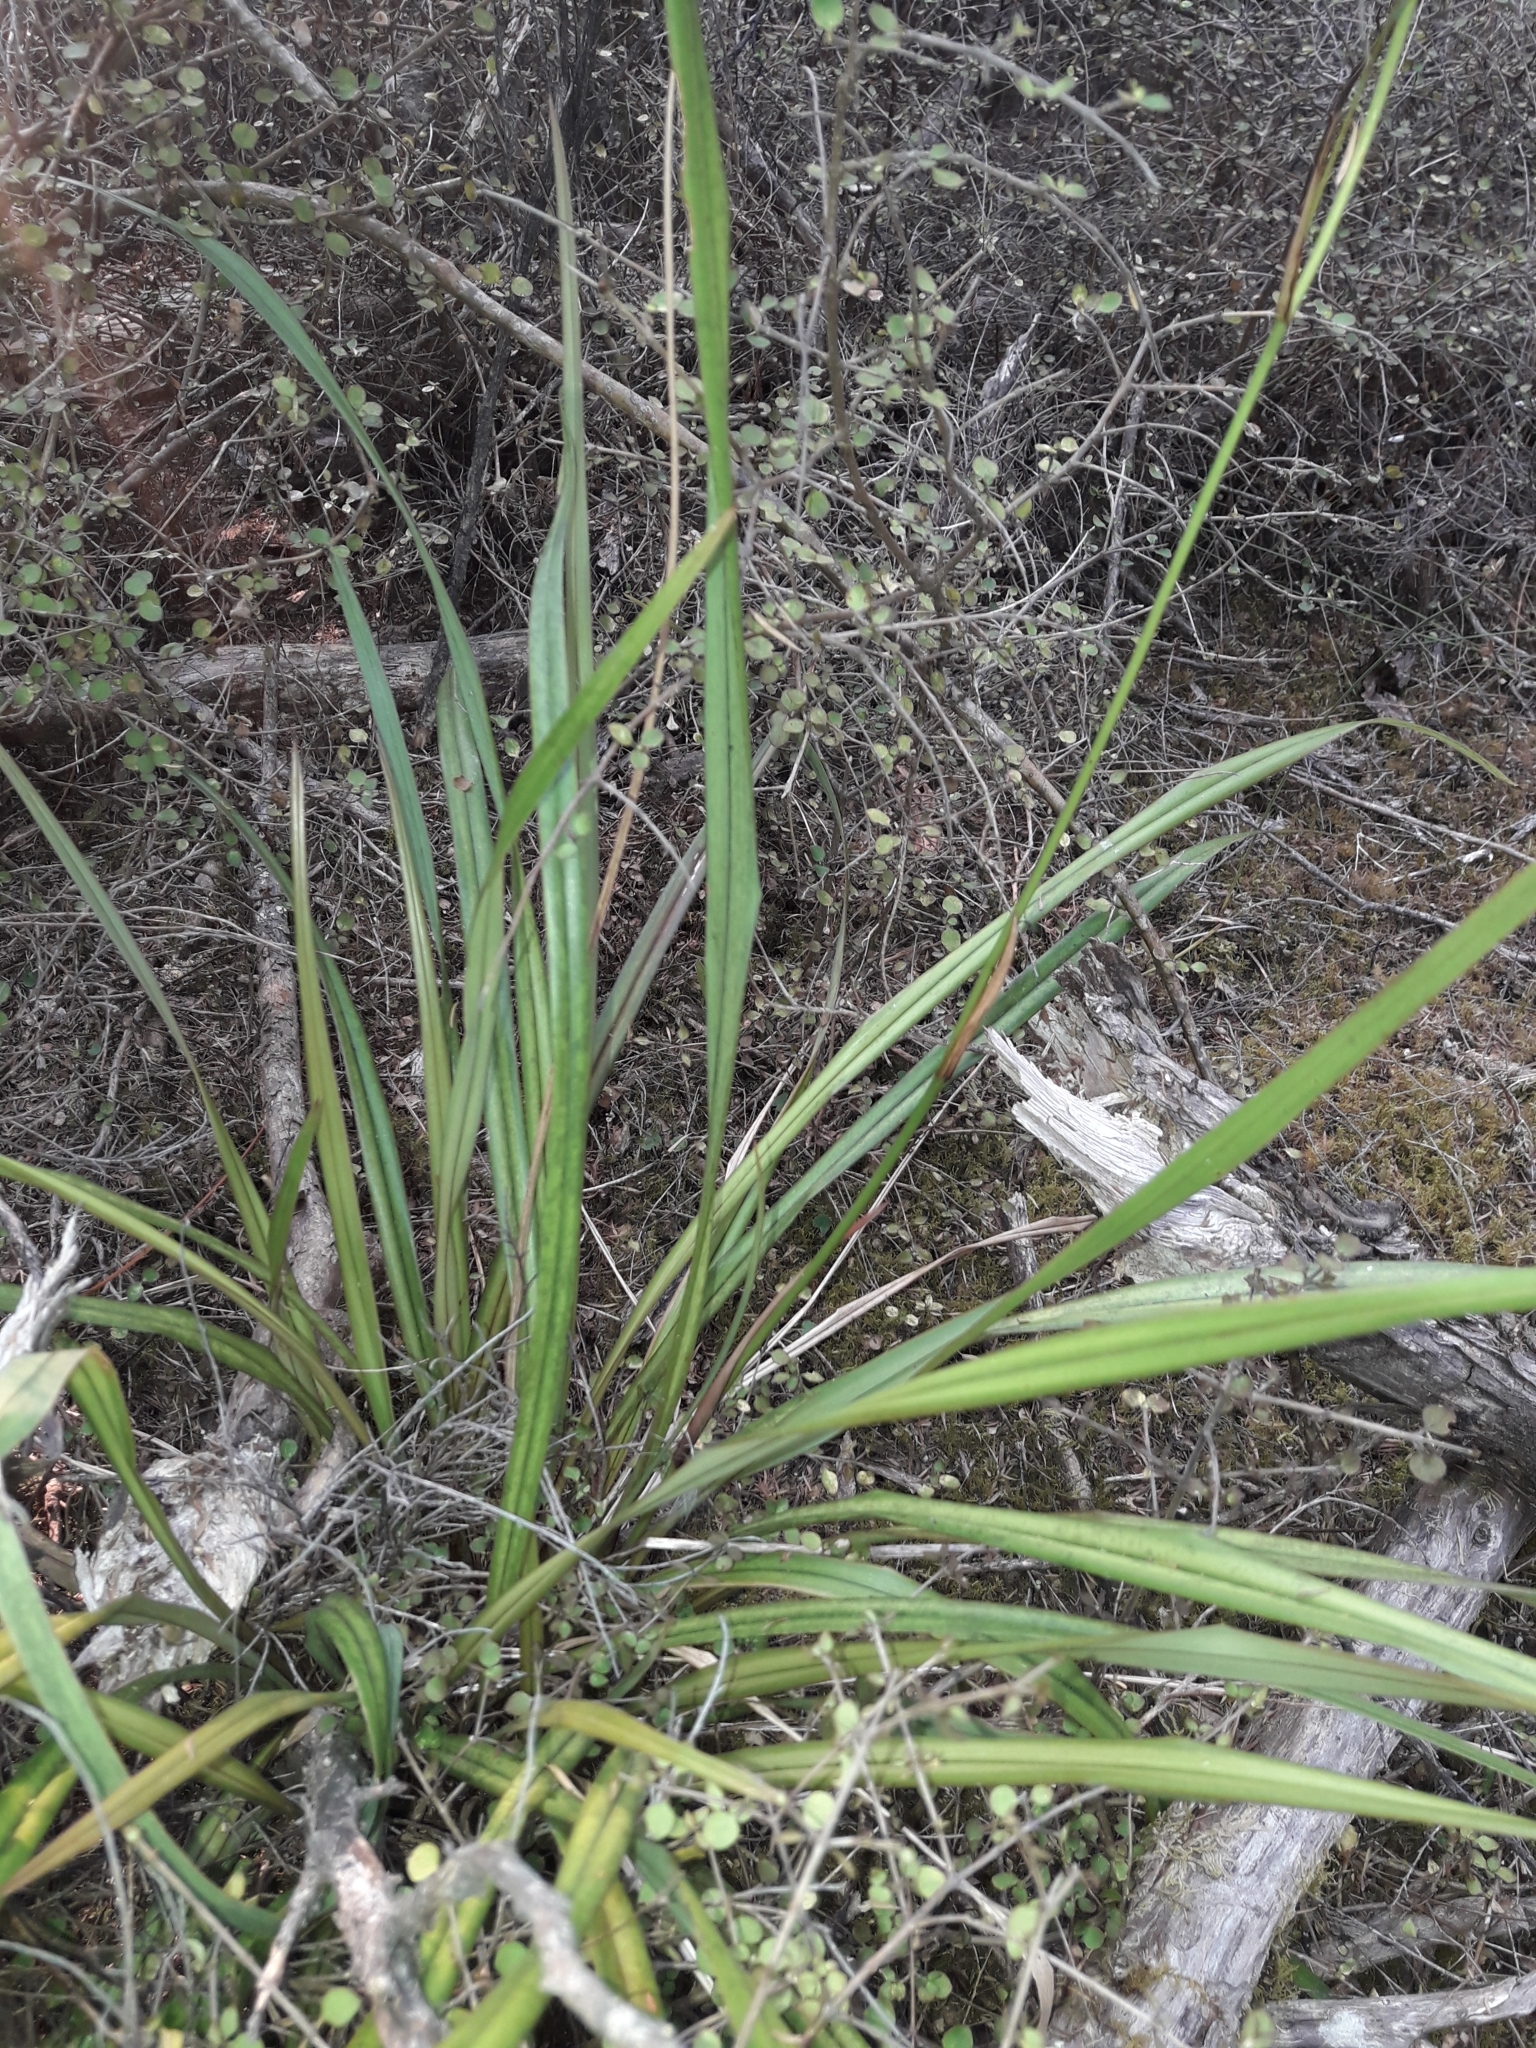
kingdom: Plantae
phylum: Tracheophyta
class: Liliopsida
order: Asparagales
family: Asphodelaceae
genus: Dianella
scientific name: Dianella nigra
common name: New zealand-blueberry
